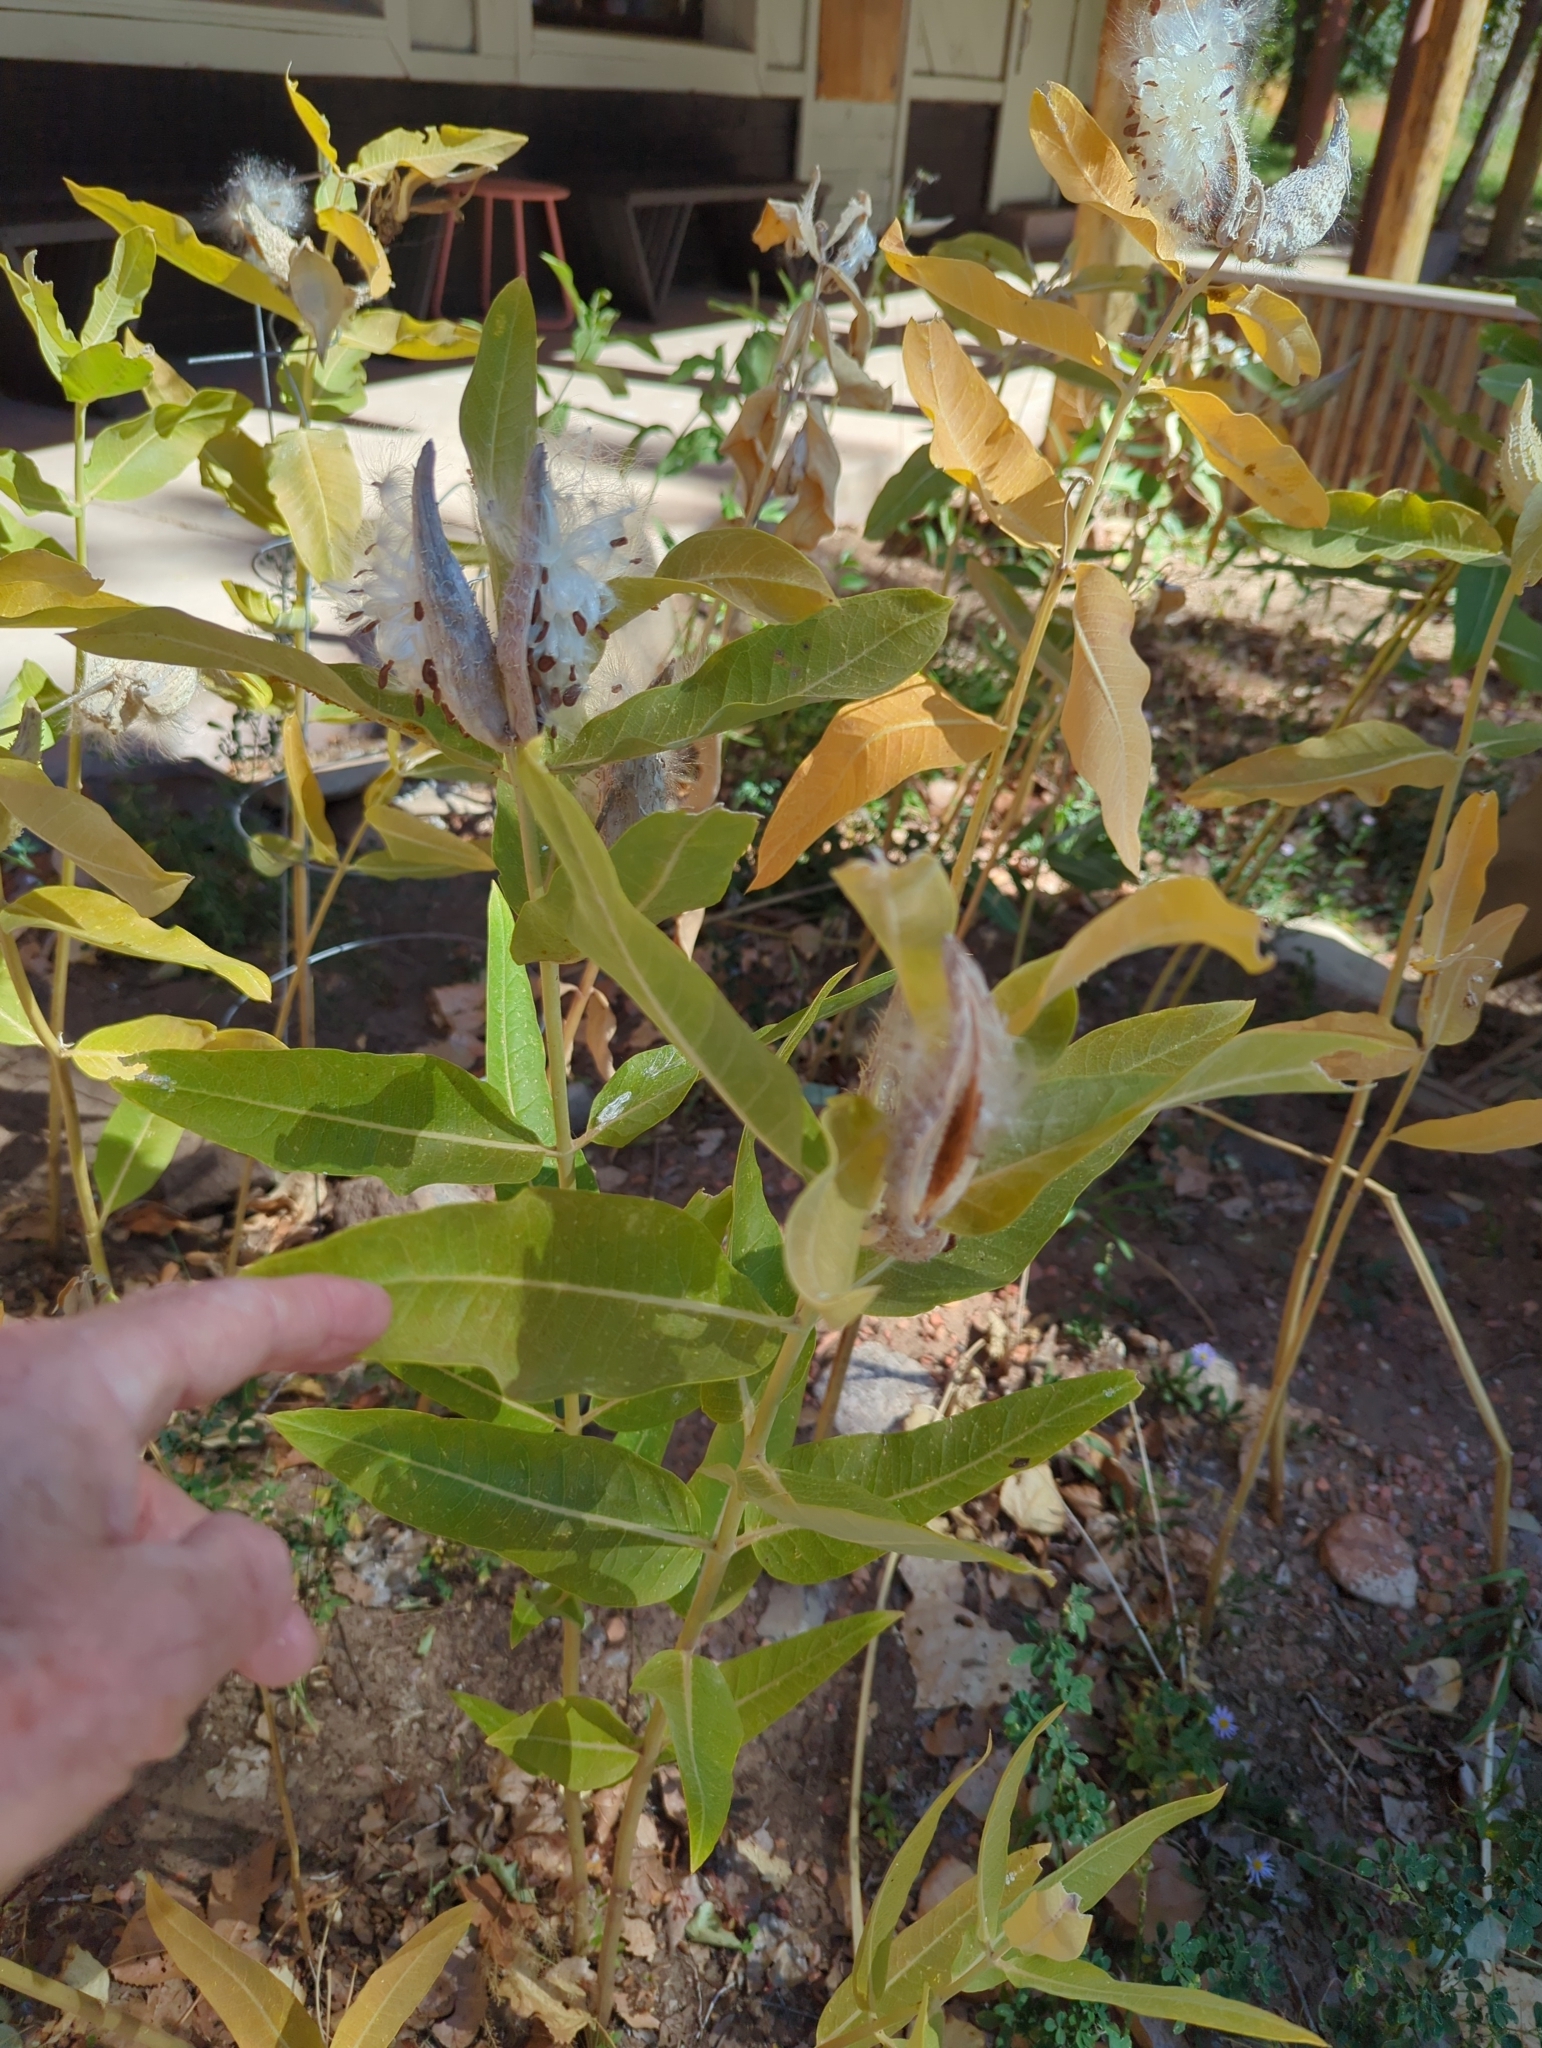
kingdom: Plantae
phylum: Tracheophyta
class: Magnoliopsida
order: Gentianales
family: Apocynaceae
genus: Asclepias
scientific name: Asclepias speciosa
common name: Showy milkweed
